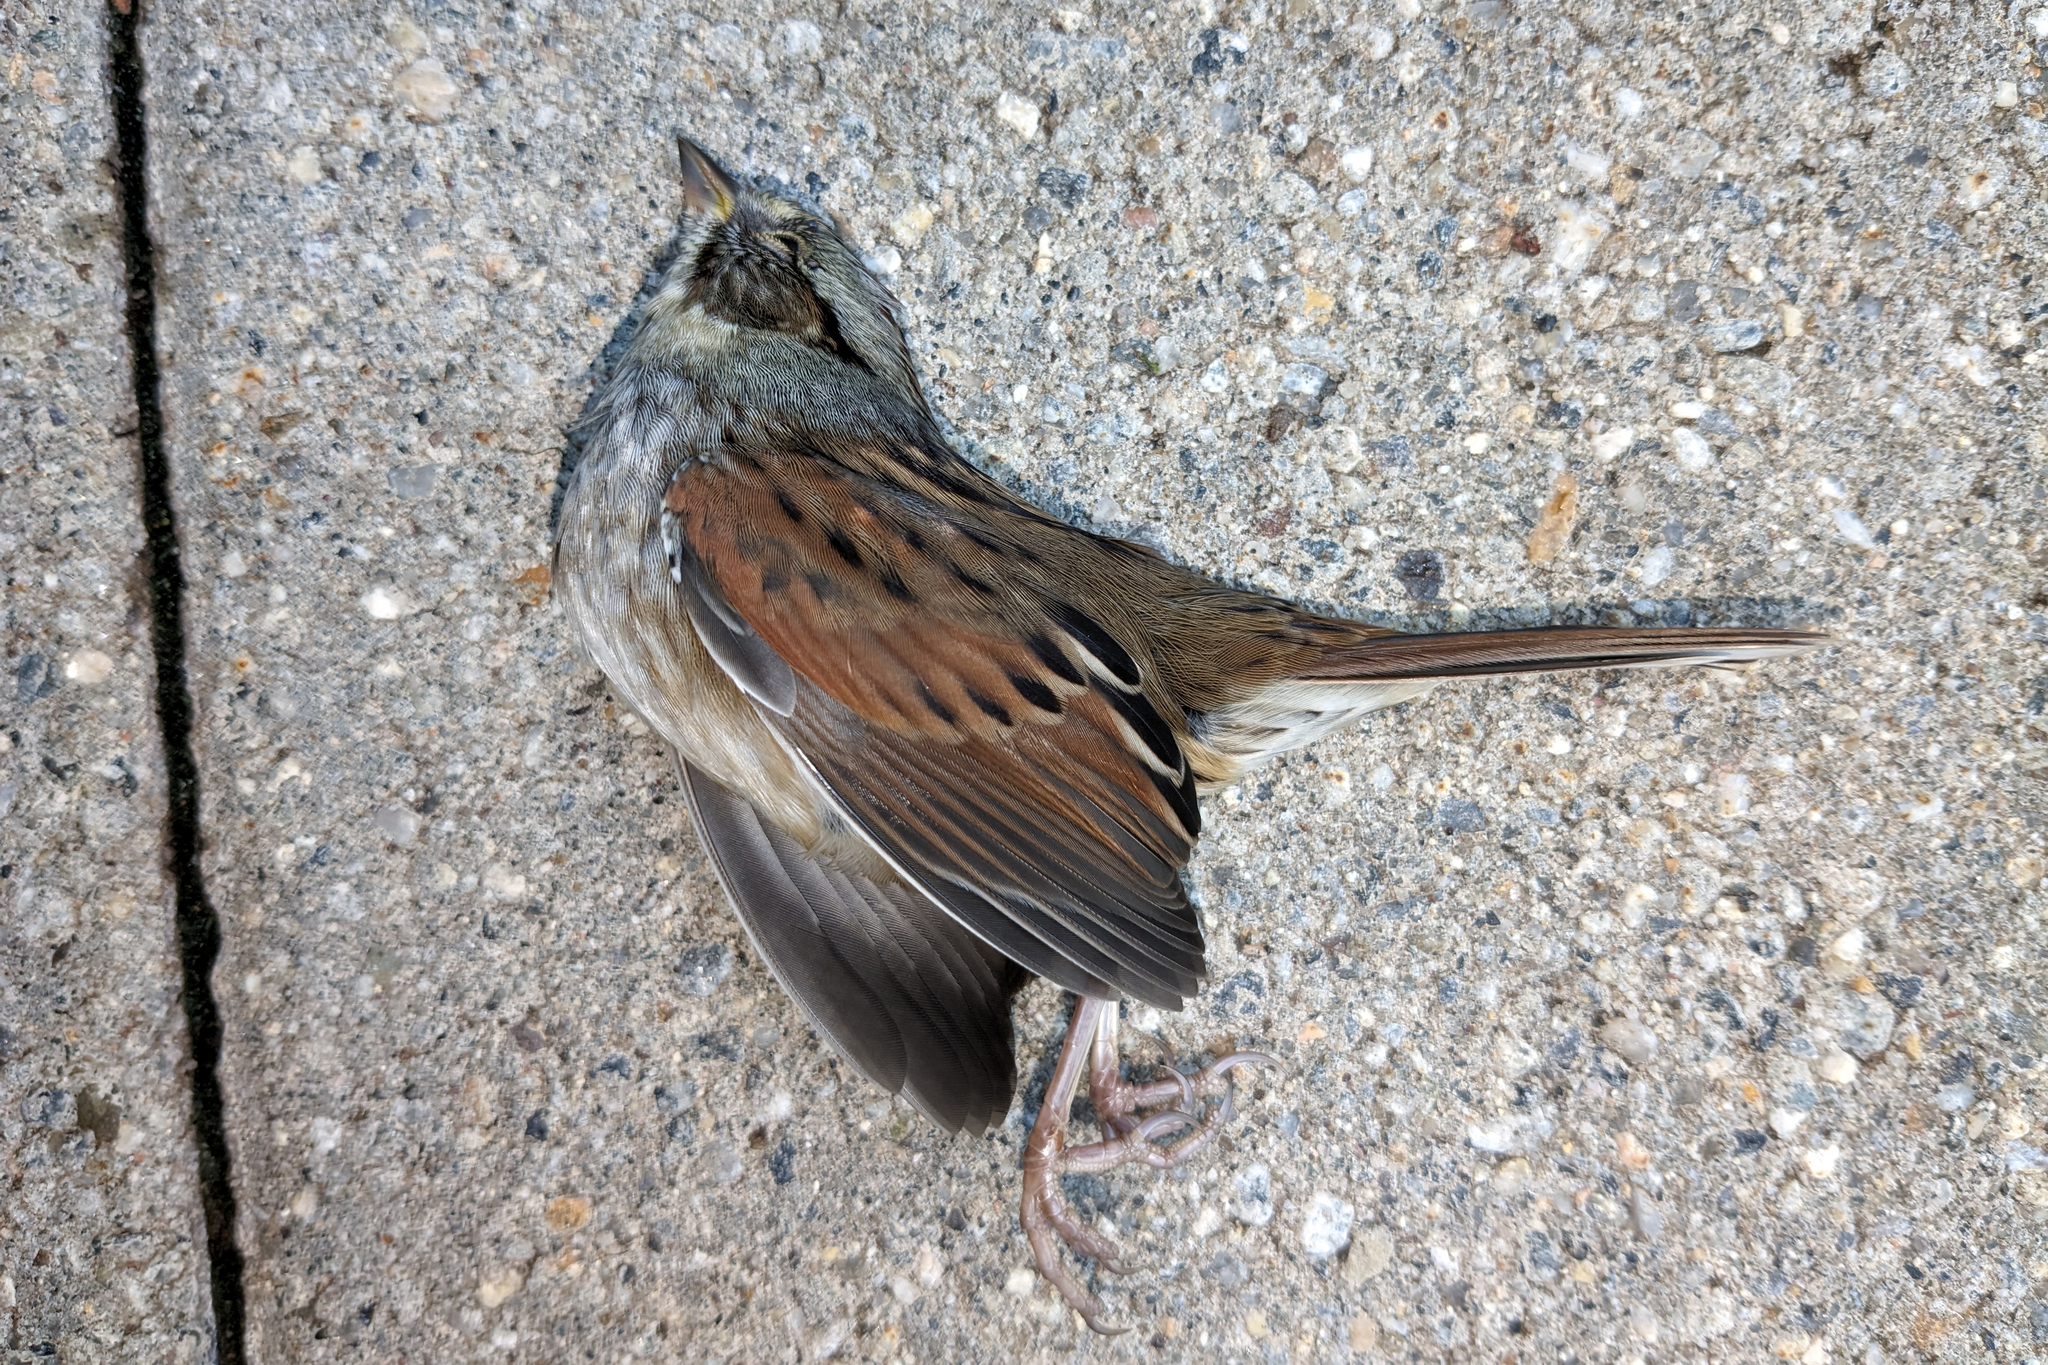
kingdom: Animalia
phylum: Chordata
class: Aves
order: Passeriformes
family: Passerellidae
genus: Melospiza
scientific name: Melospiza georgiana
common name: Swamp sparrow
